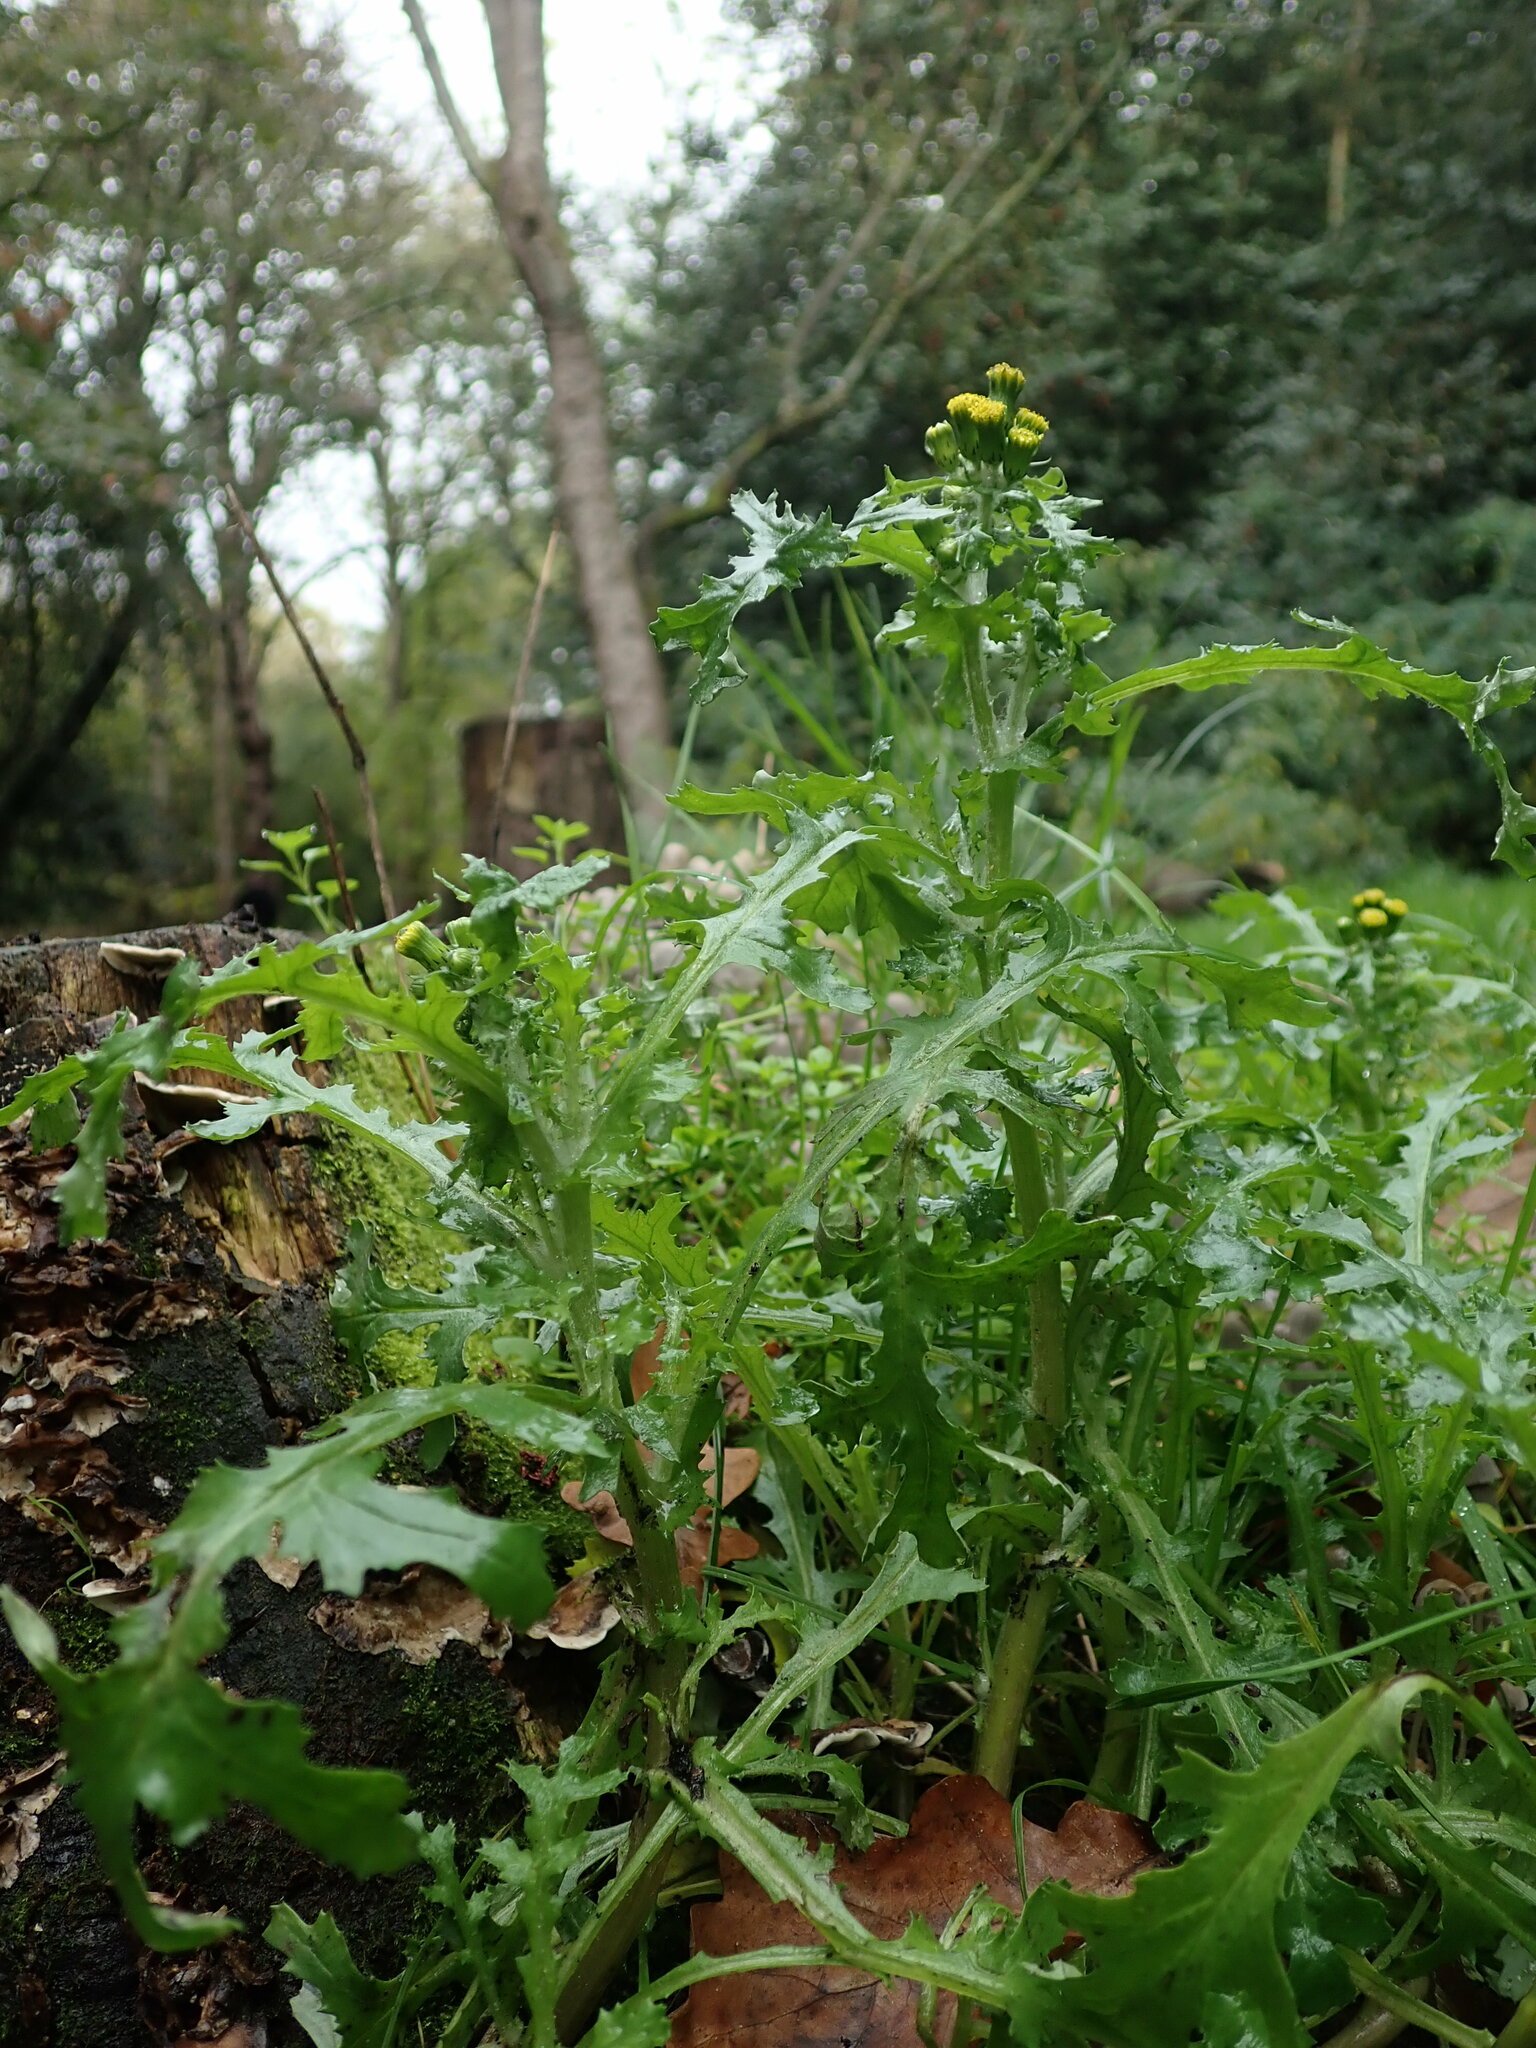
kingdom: Plantae
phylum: Tracheophyta
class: Magnoliopsida
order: Asterales
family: Asteraceae
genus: Senecio
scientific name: Senecio vulgaris
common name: Old-man-in-the-spring
